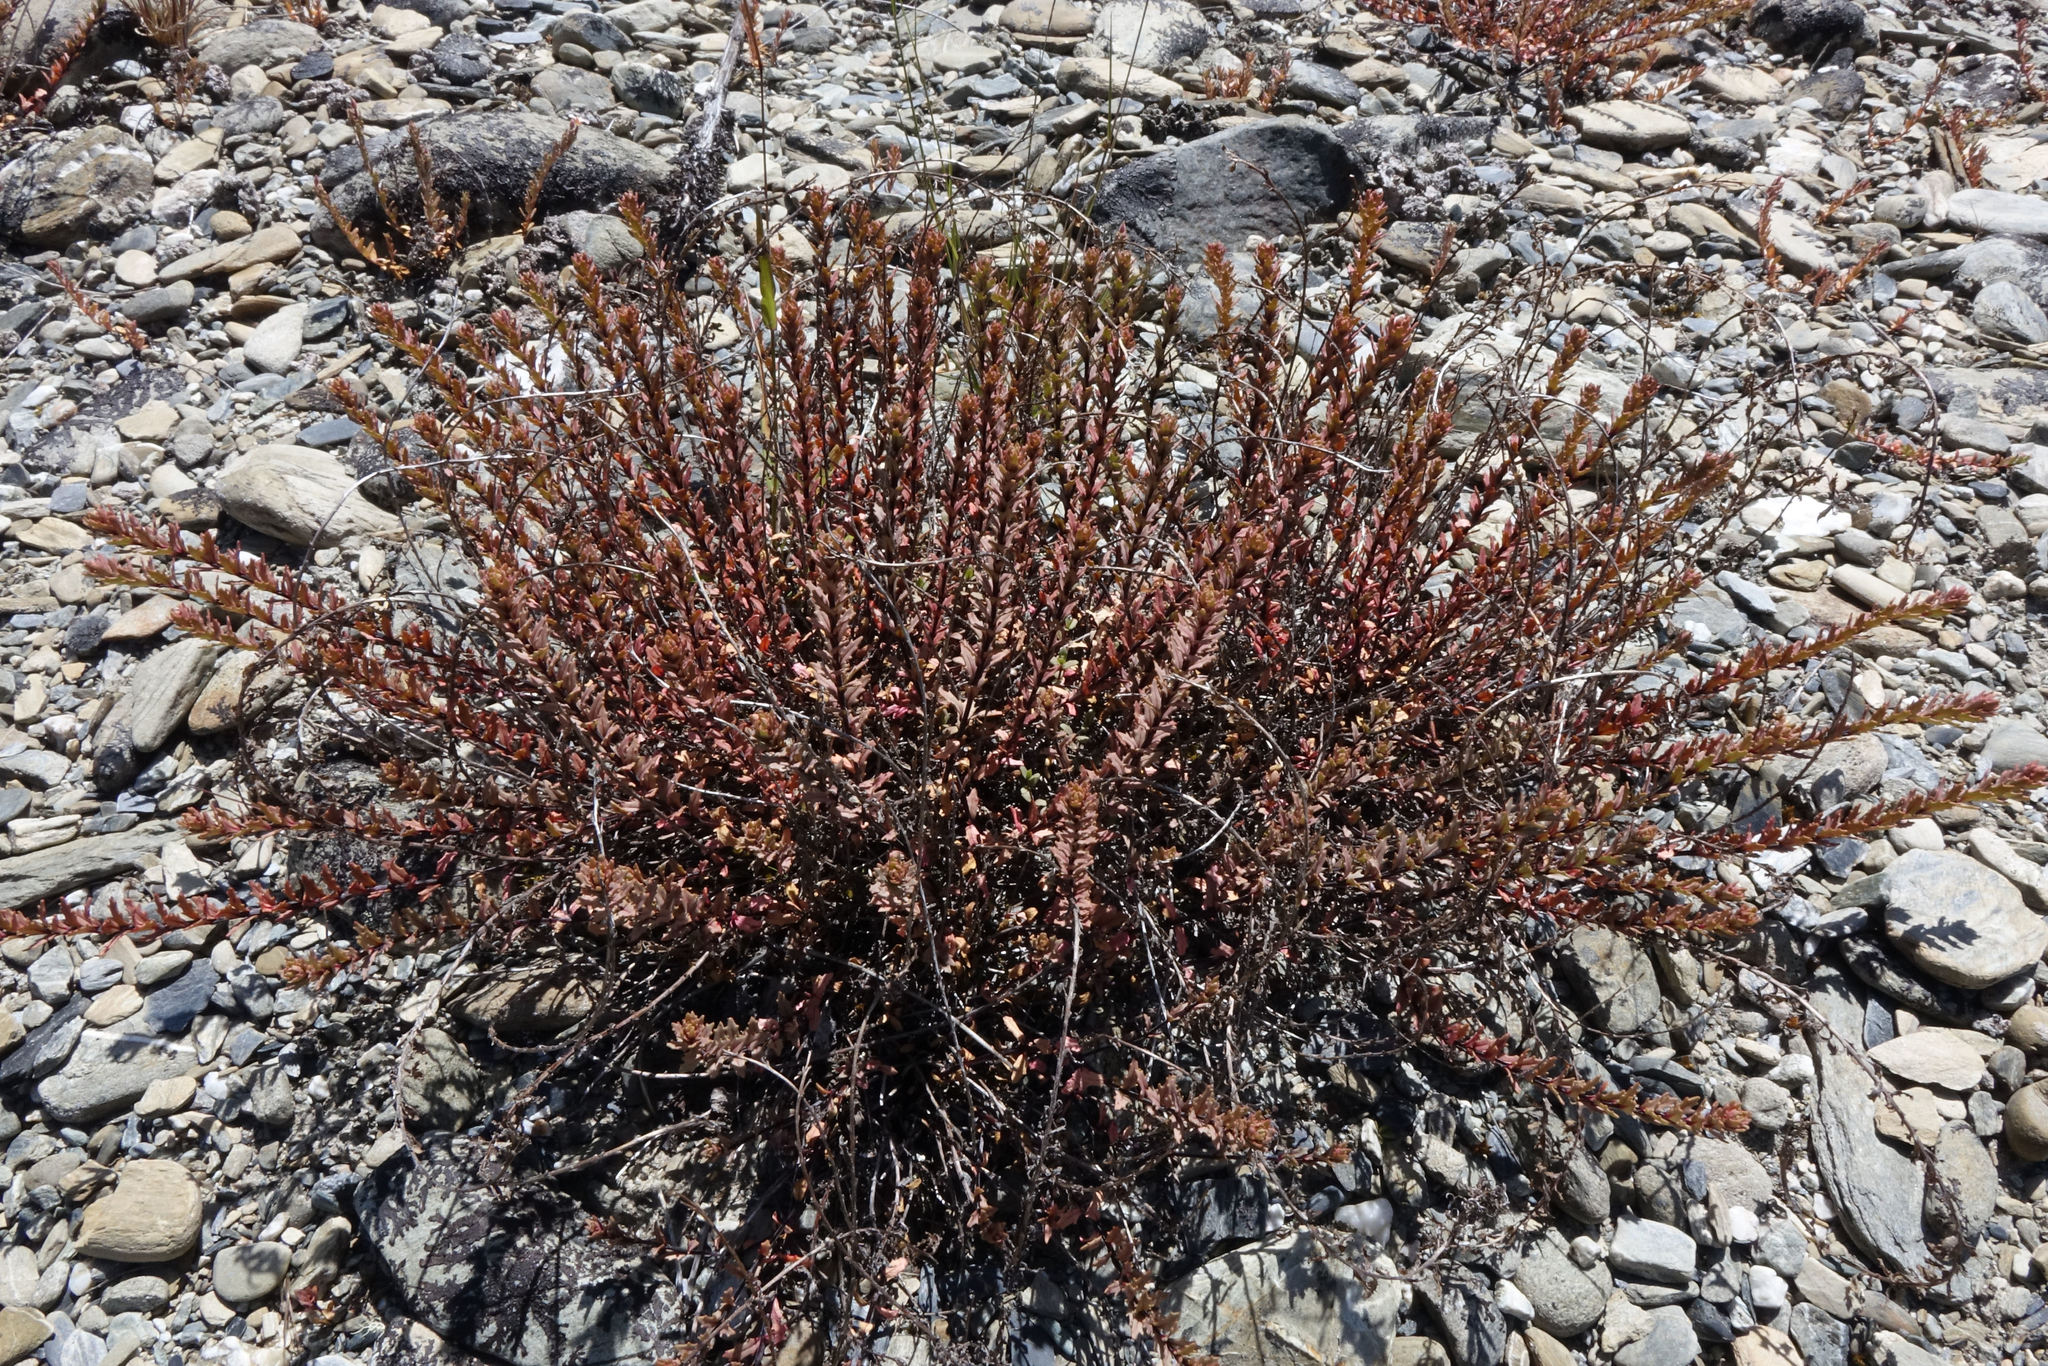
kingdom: Plantae
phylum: Tracheophyta
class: Magnoliopsida
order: Myrtales
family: Onagraceae
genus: Epilobium
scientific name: Epilobium melanocaulon
